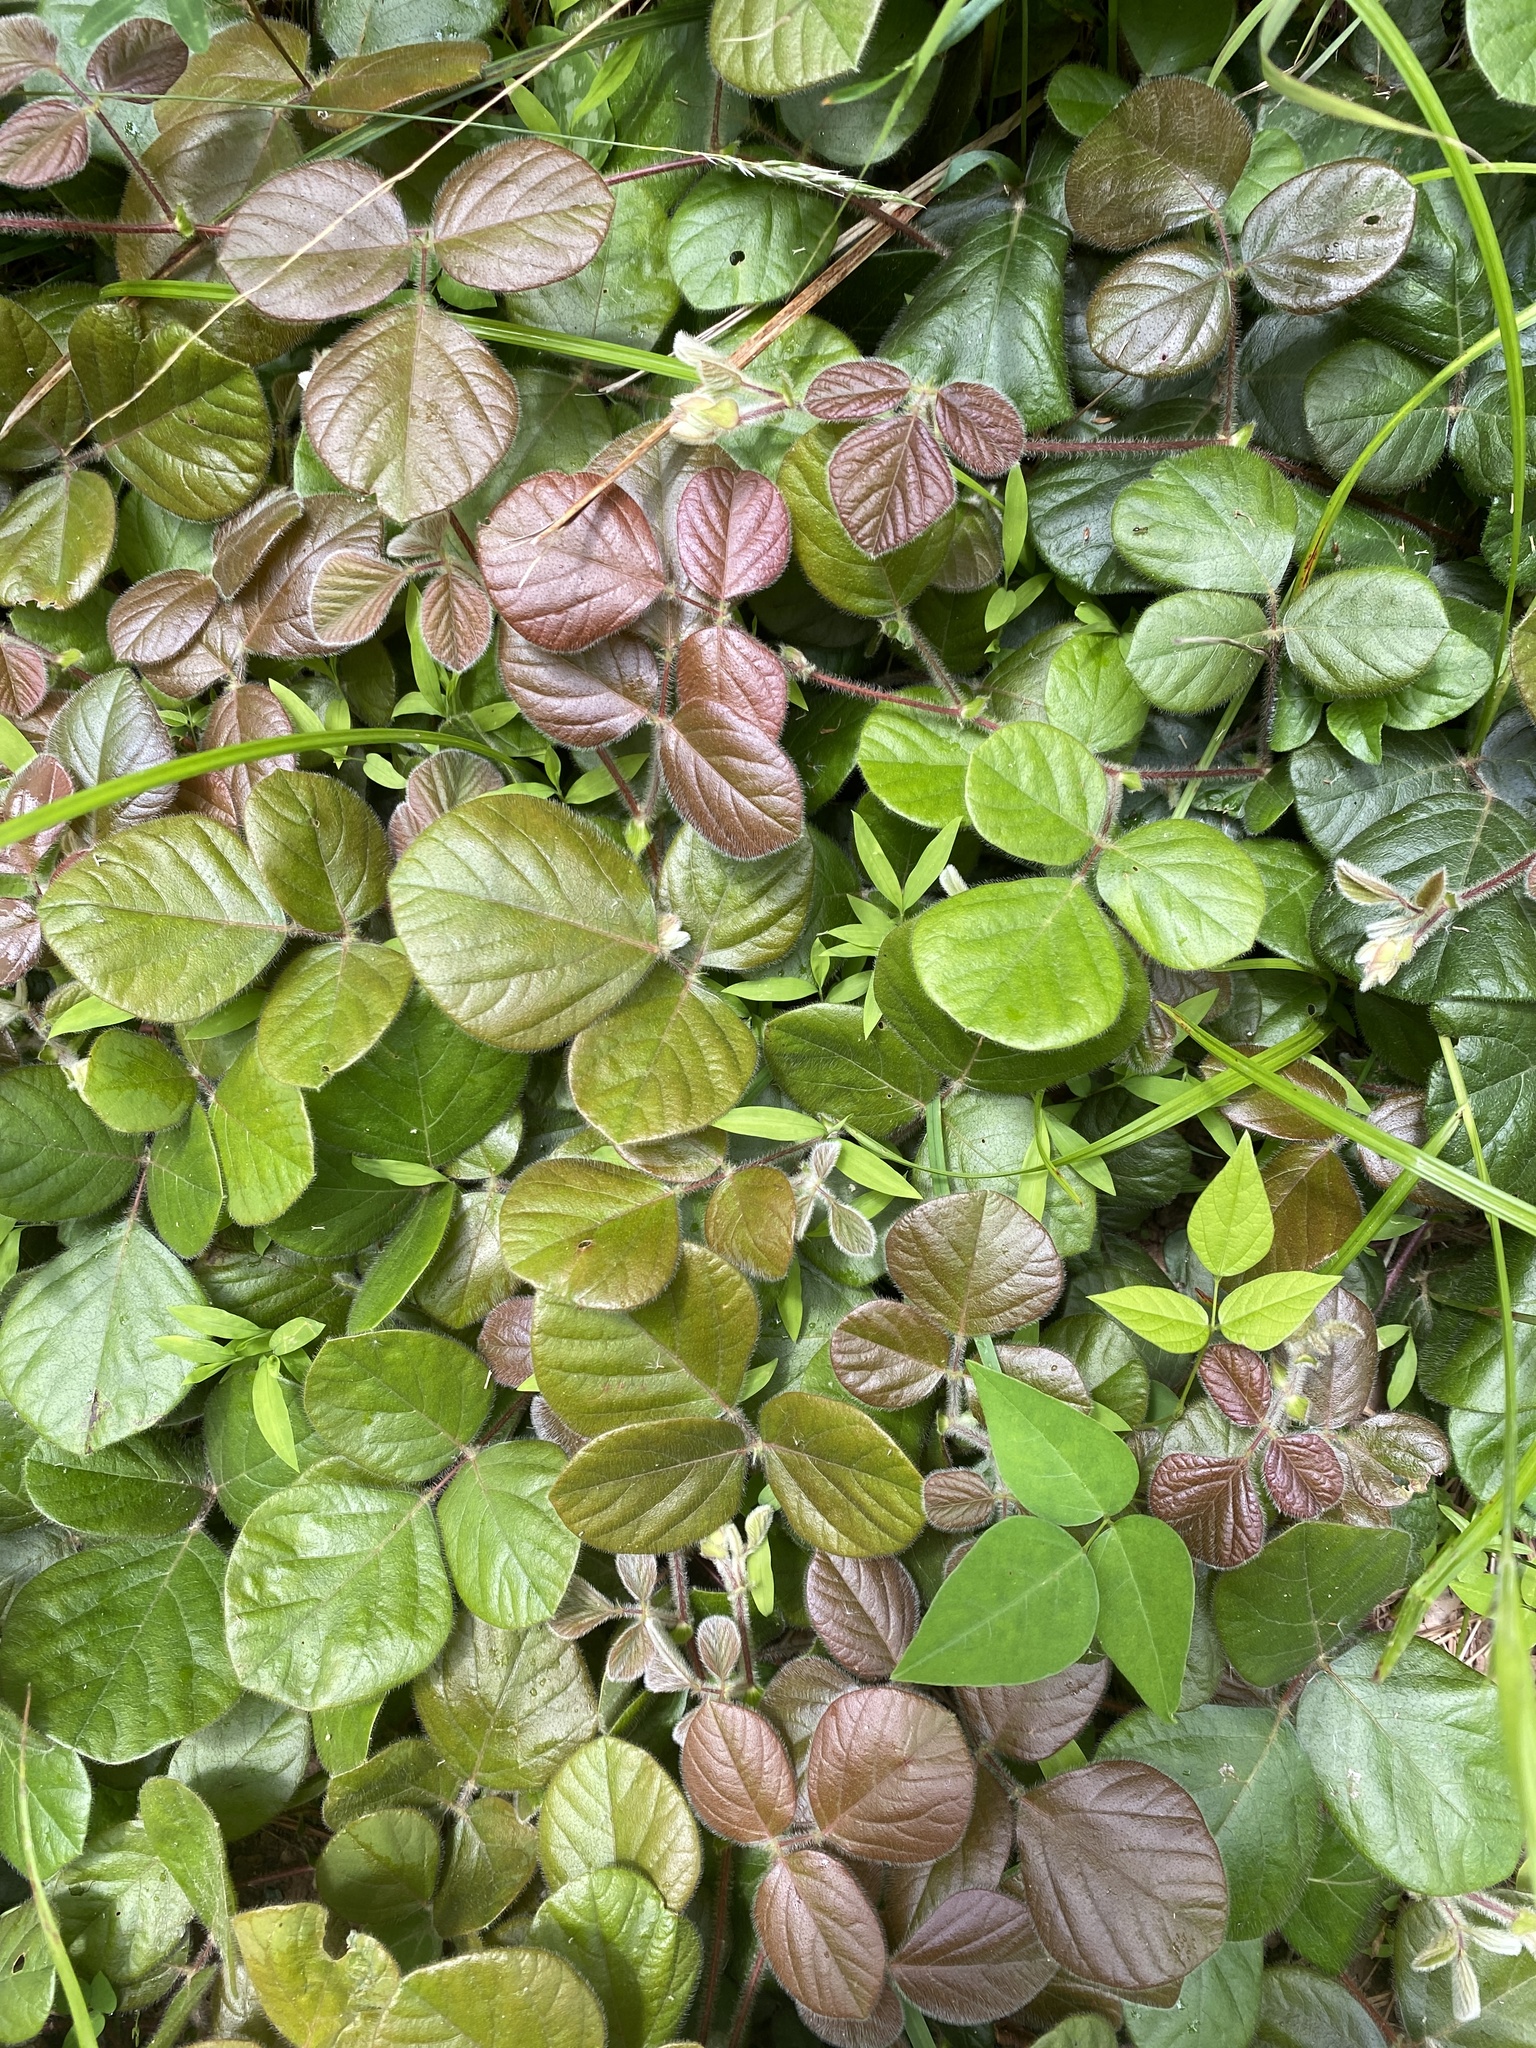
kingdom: Plantae
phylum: Tracheophyta
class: Magnoliopsida
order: Fabales
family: Fabaceae
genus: Desmodium
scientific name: Desmodium rotundifolium
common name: Dollarleaf
